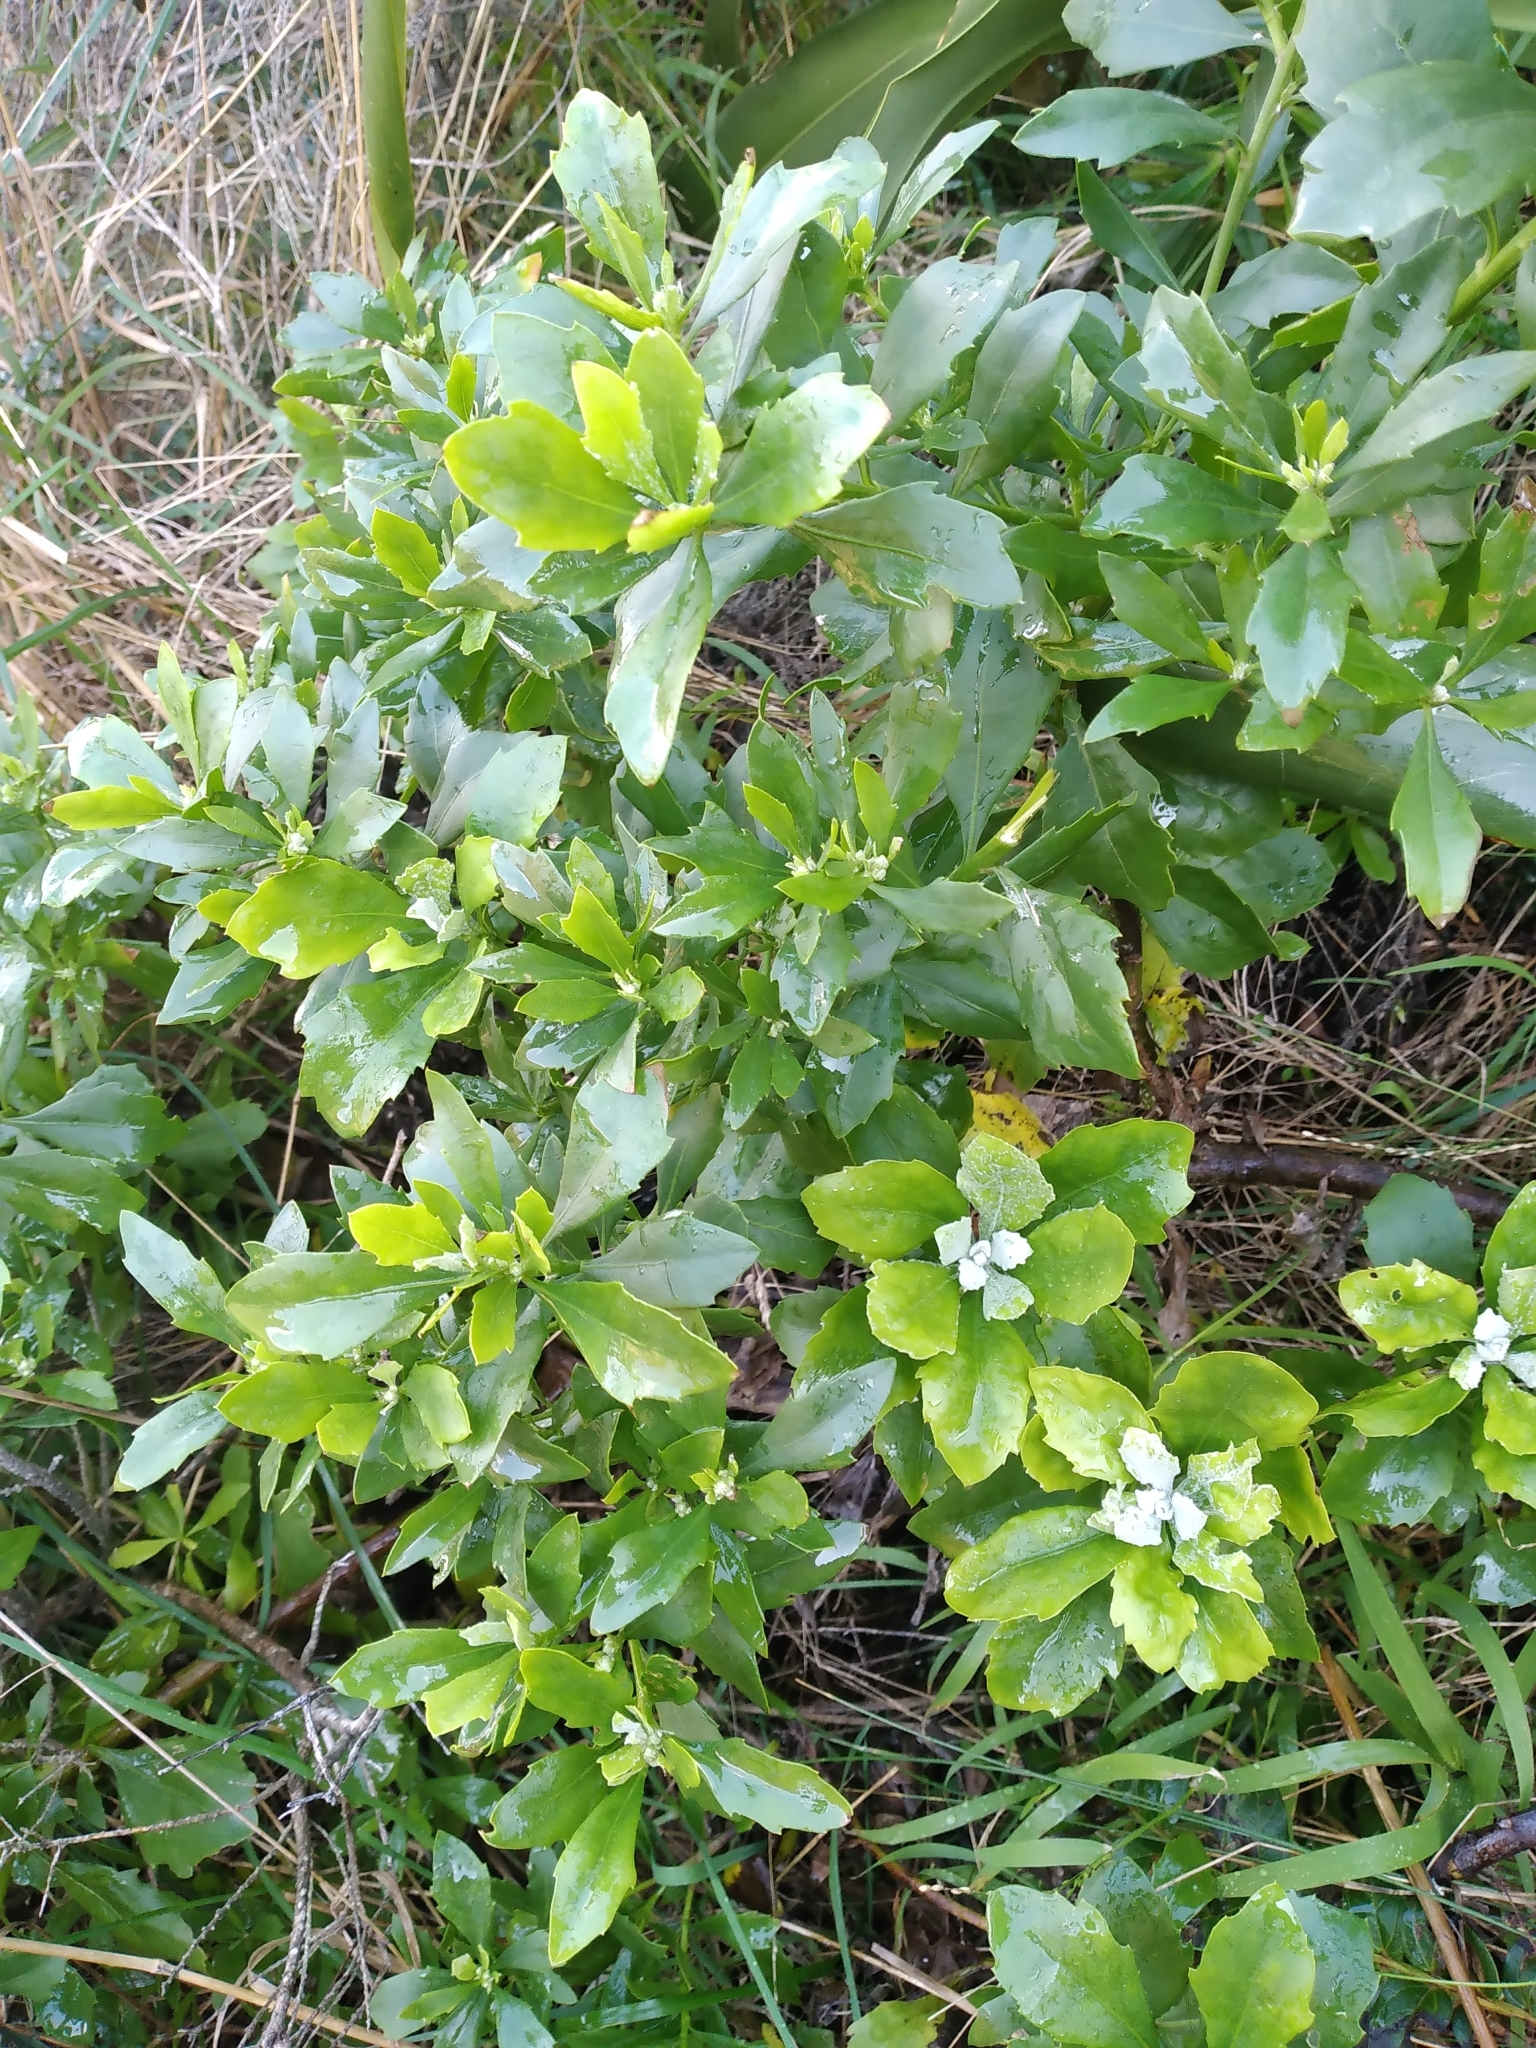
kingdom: Plantae
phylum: Tracheophyta
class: Magnoliopsida
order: Asterales
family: Asteraceae
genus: Osteospermum
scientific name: Osteospermum moniliferum
